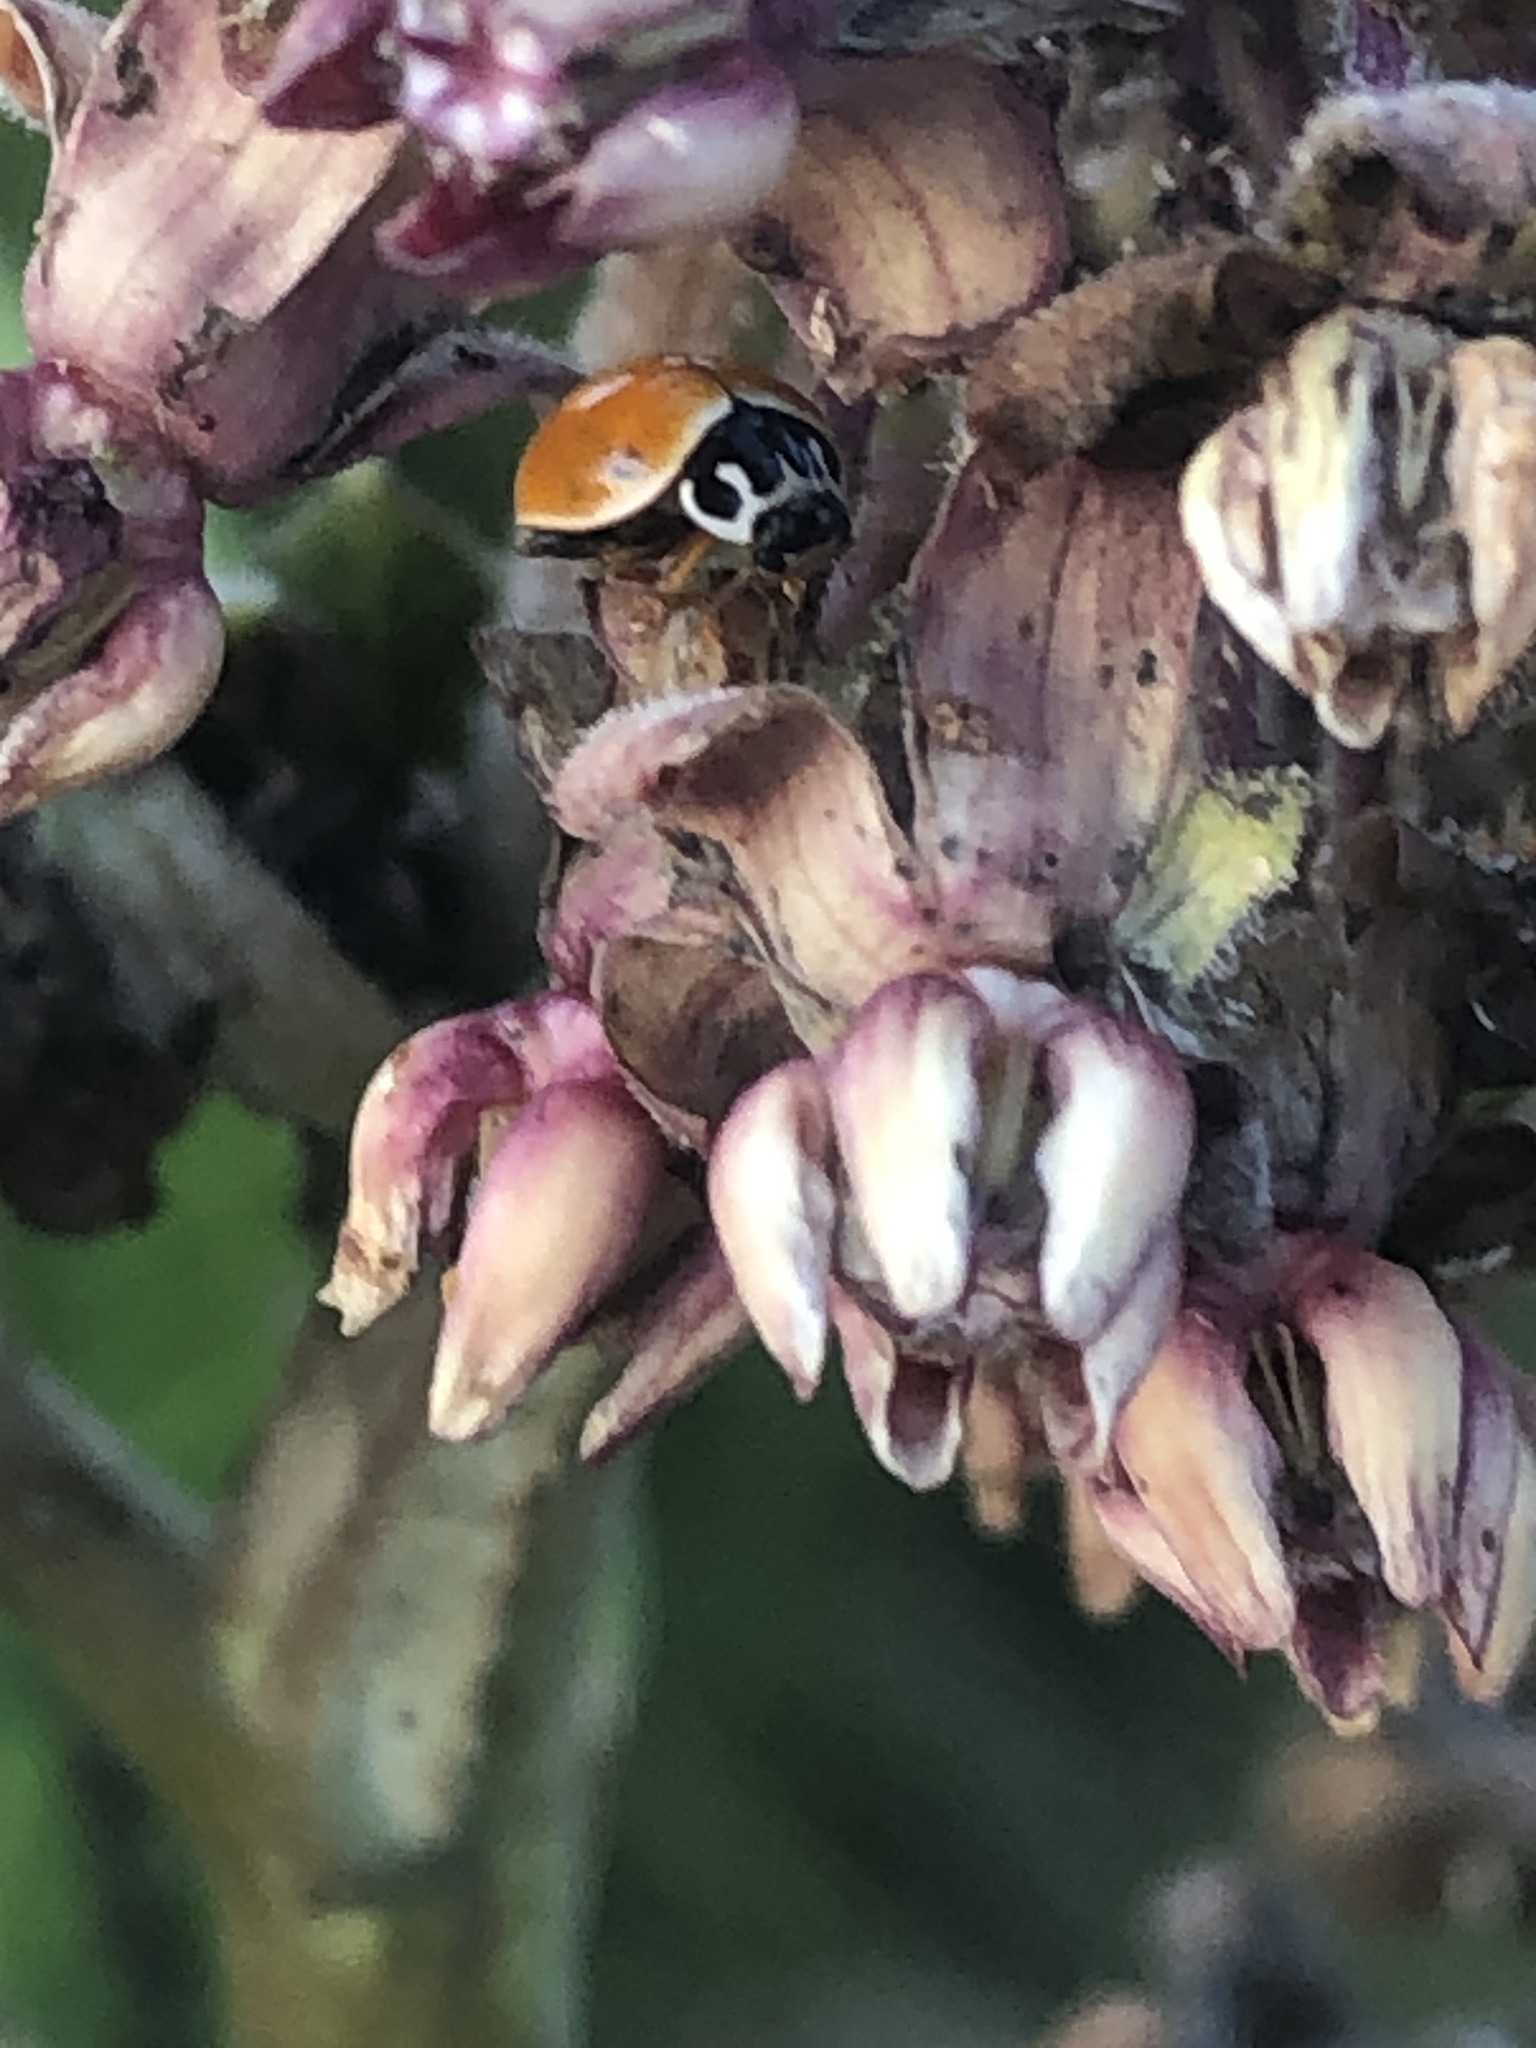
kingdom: Animalia
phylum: Arthropoda
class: Insecta
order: Coleoptera
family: Coccinellidae
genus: Cycloneda
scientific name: Cycloneda munda
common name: Polished lady beetle
